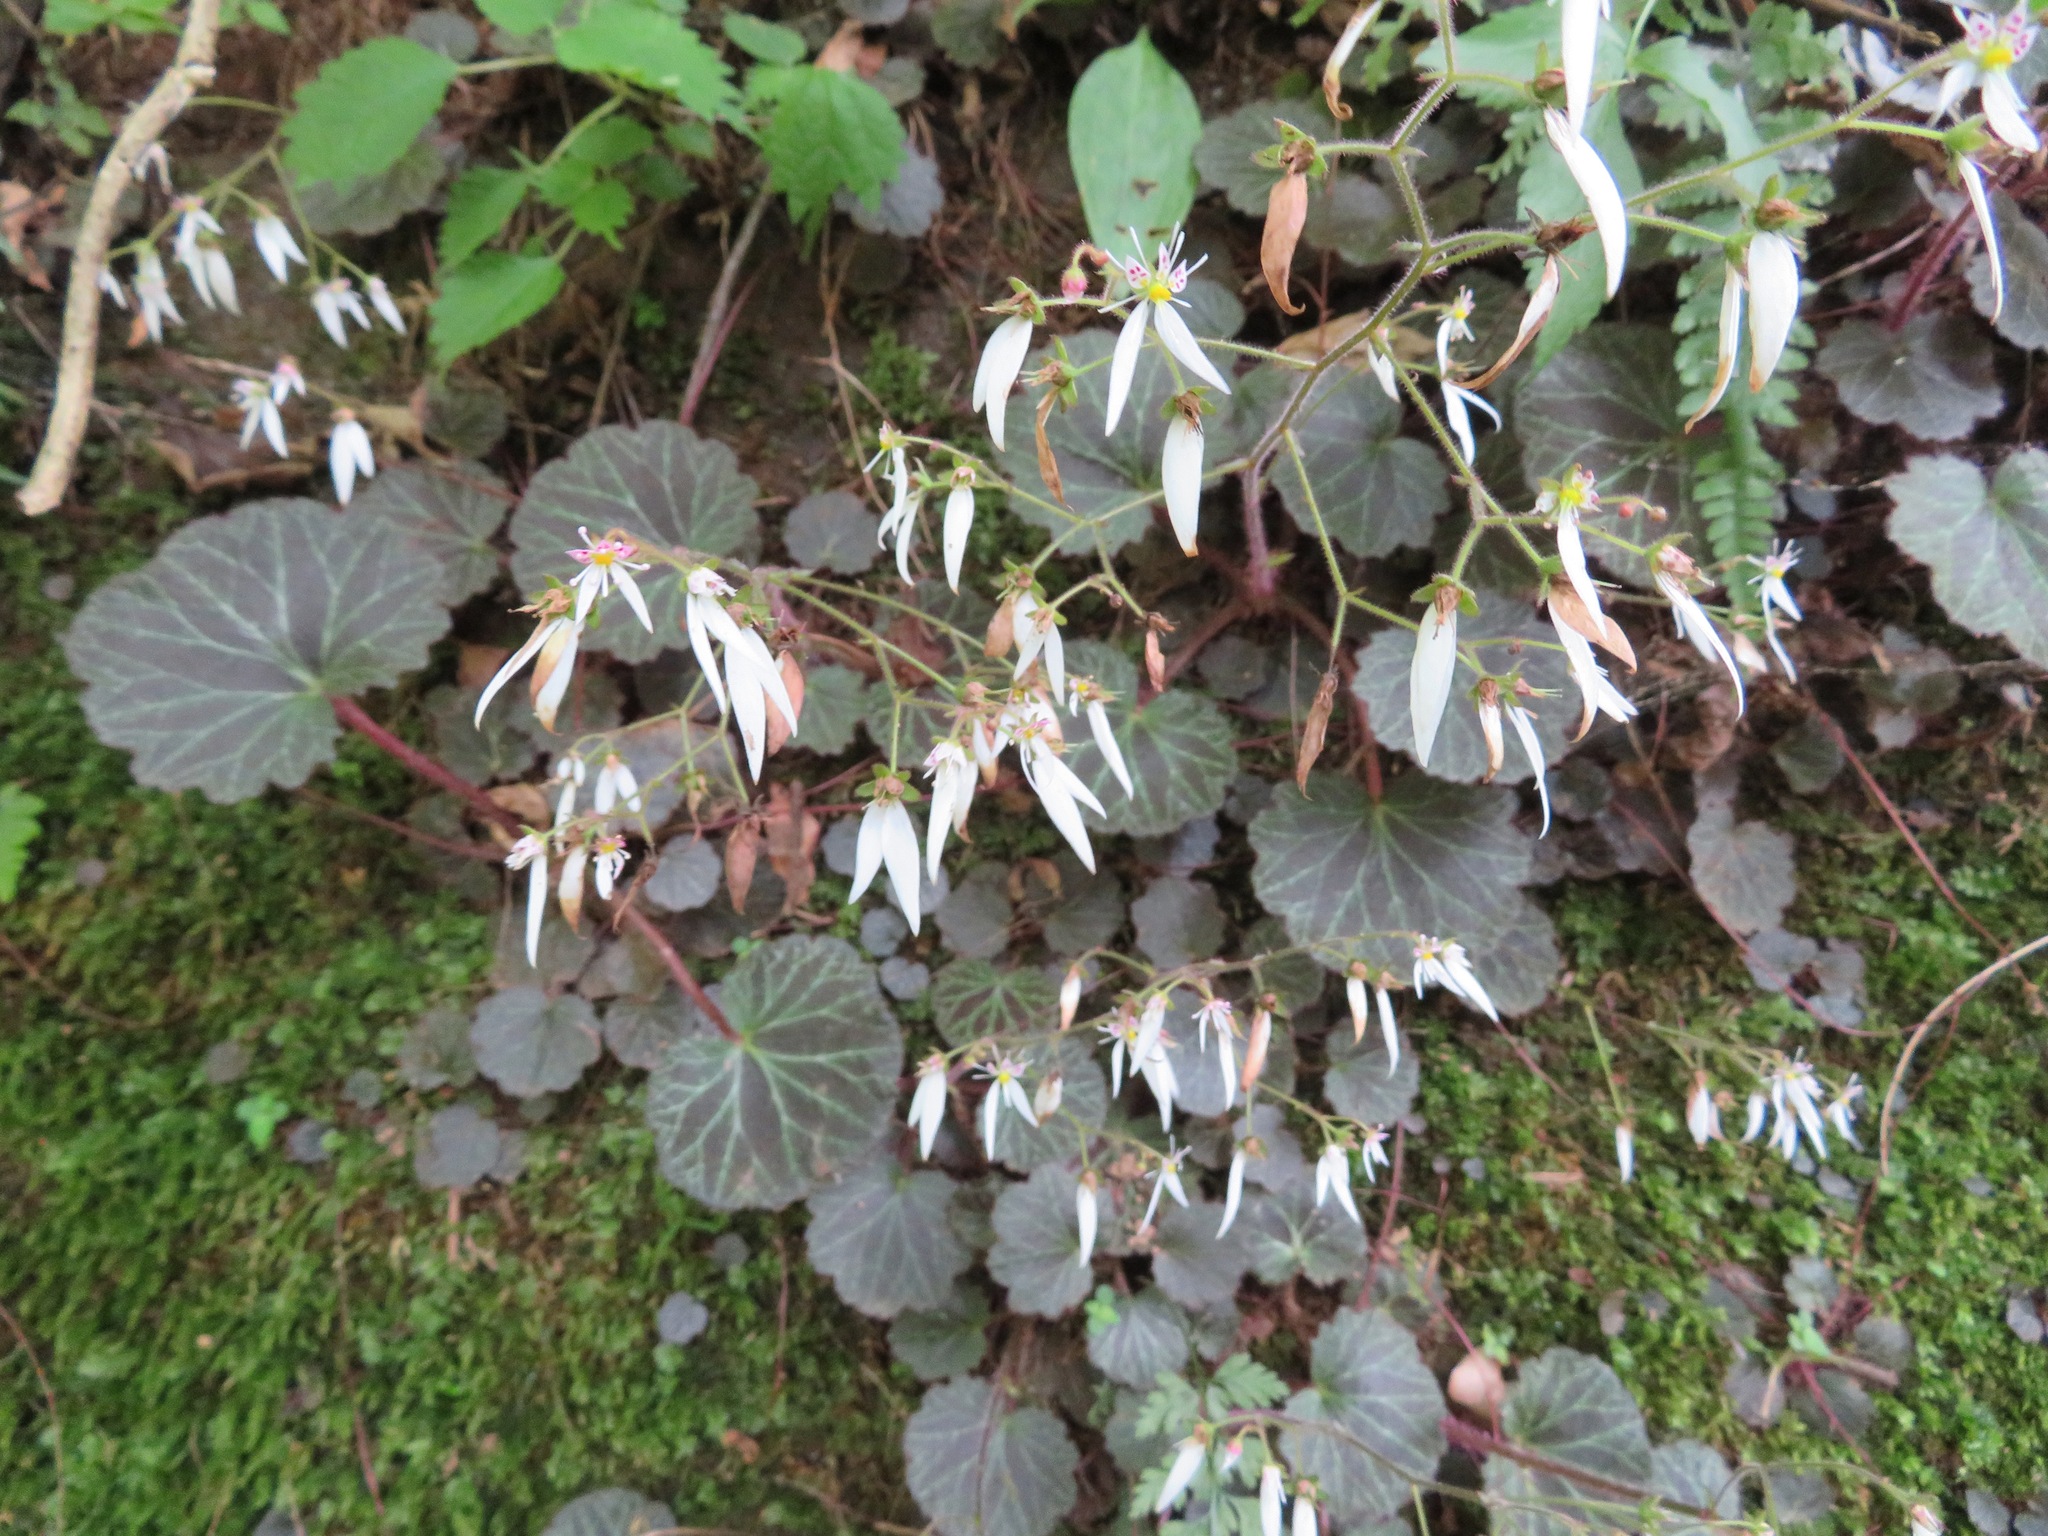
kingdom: Plantae
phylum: Tracheophyta
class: Magnoliopsida
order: Saxifragales
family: Saxifragaceae
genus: Saxifraga
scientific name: Saxifraga stolonifera
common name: Creeping saxifrage
